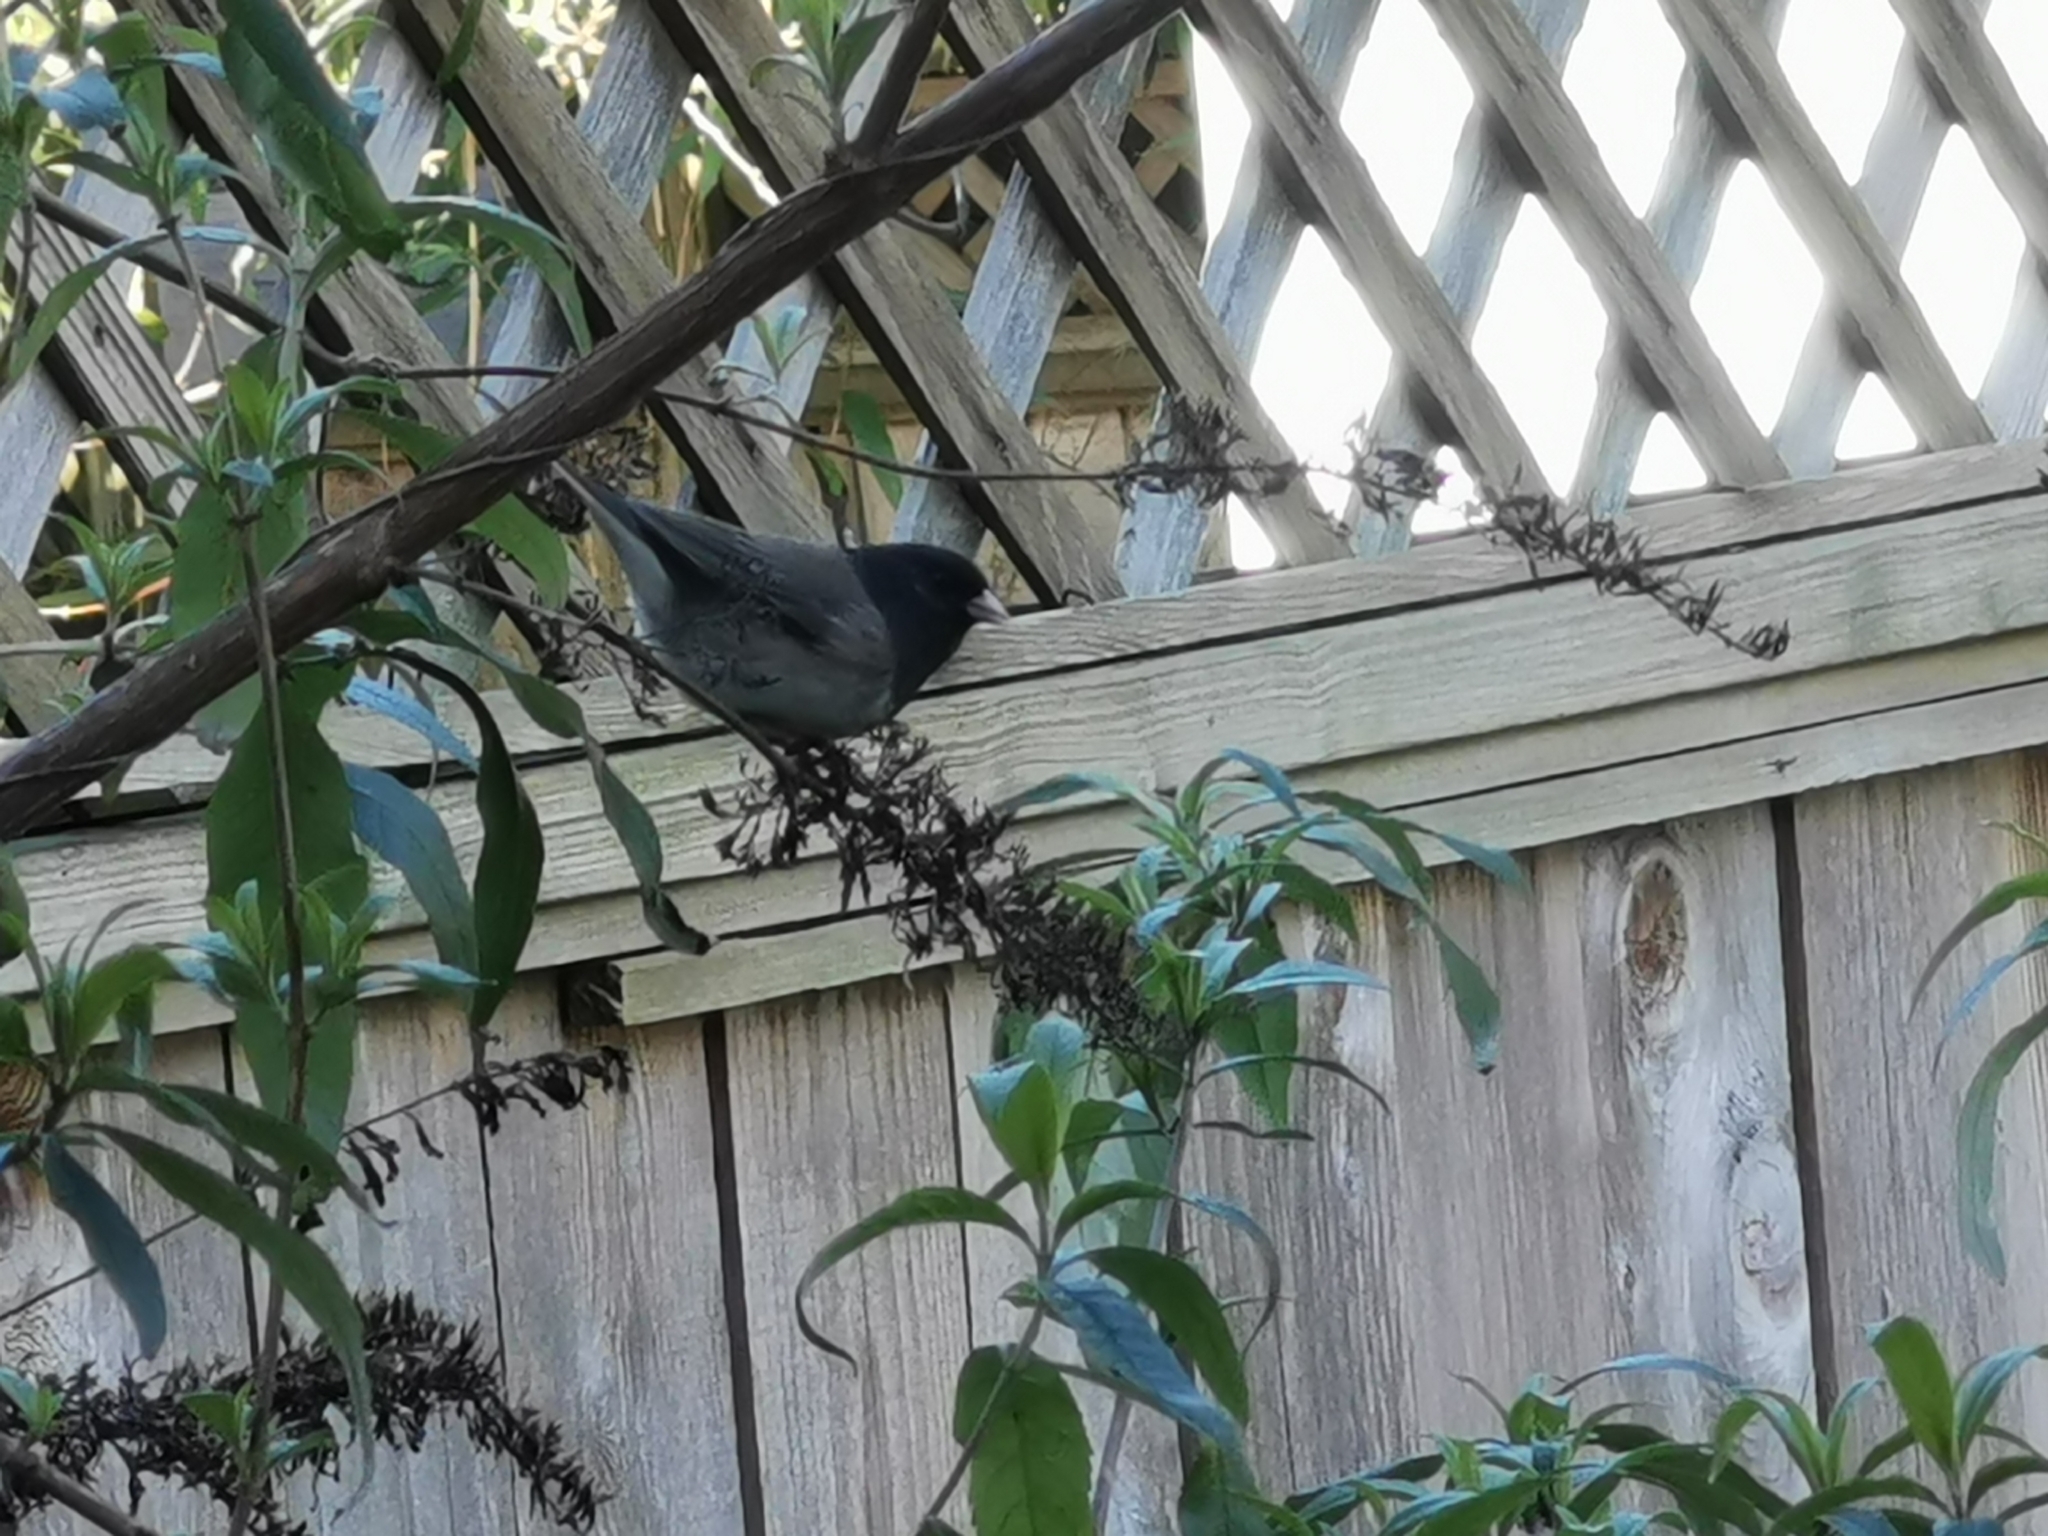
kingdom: Animalia
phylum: Chordata
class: Aves
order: Passeriformes
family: Passerellidae
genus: Junco
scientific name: Junco hyemalis
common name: Dark-eyed junco
